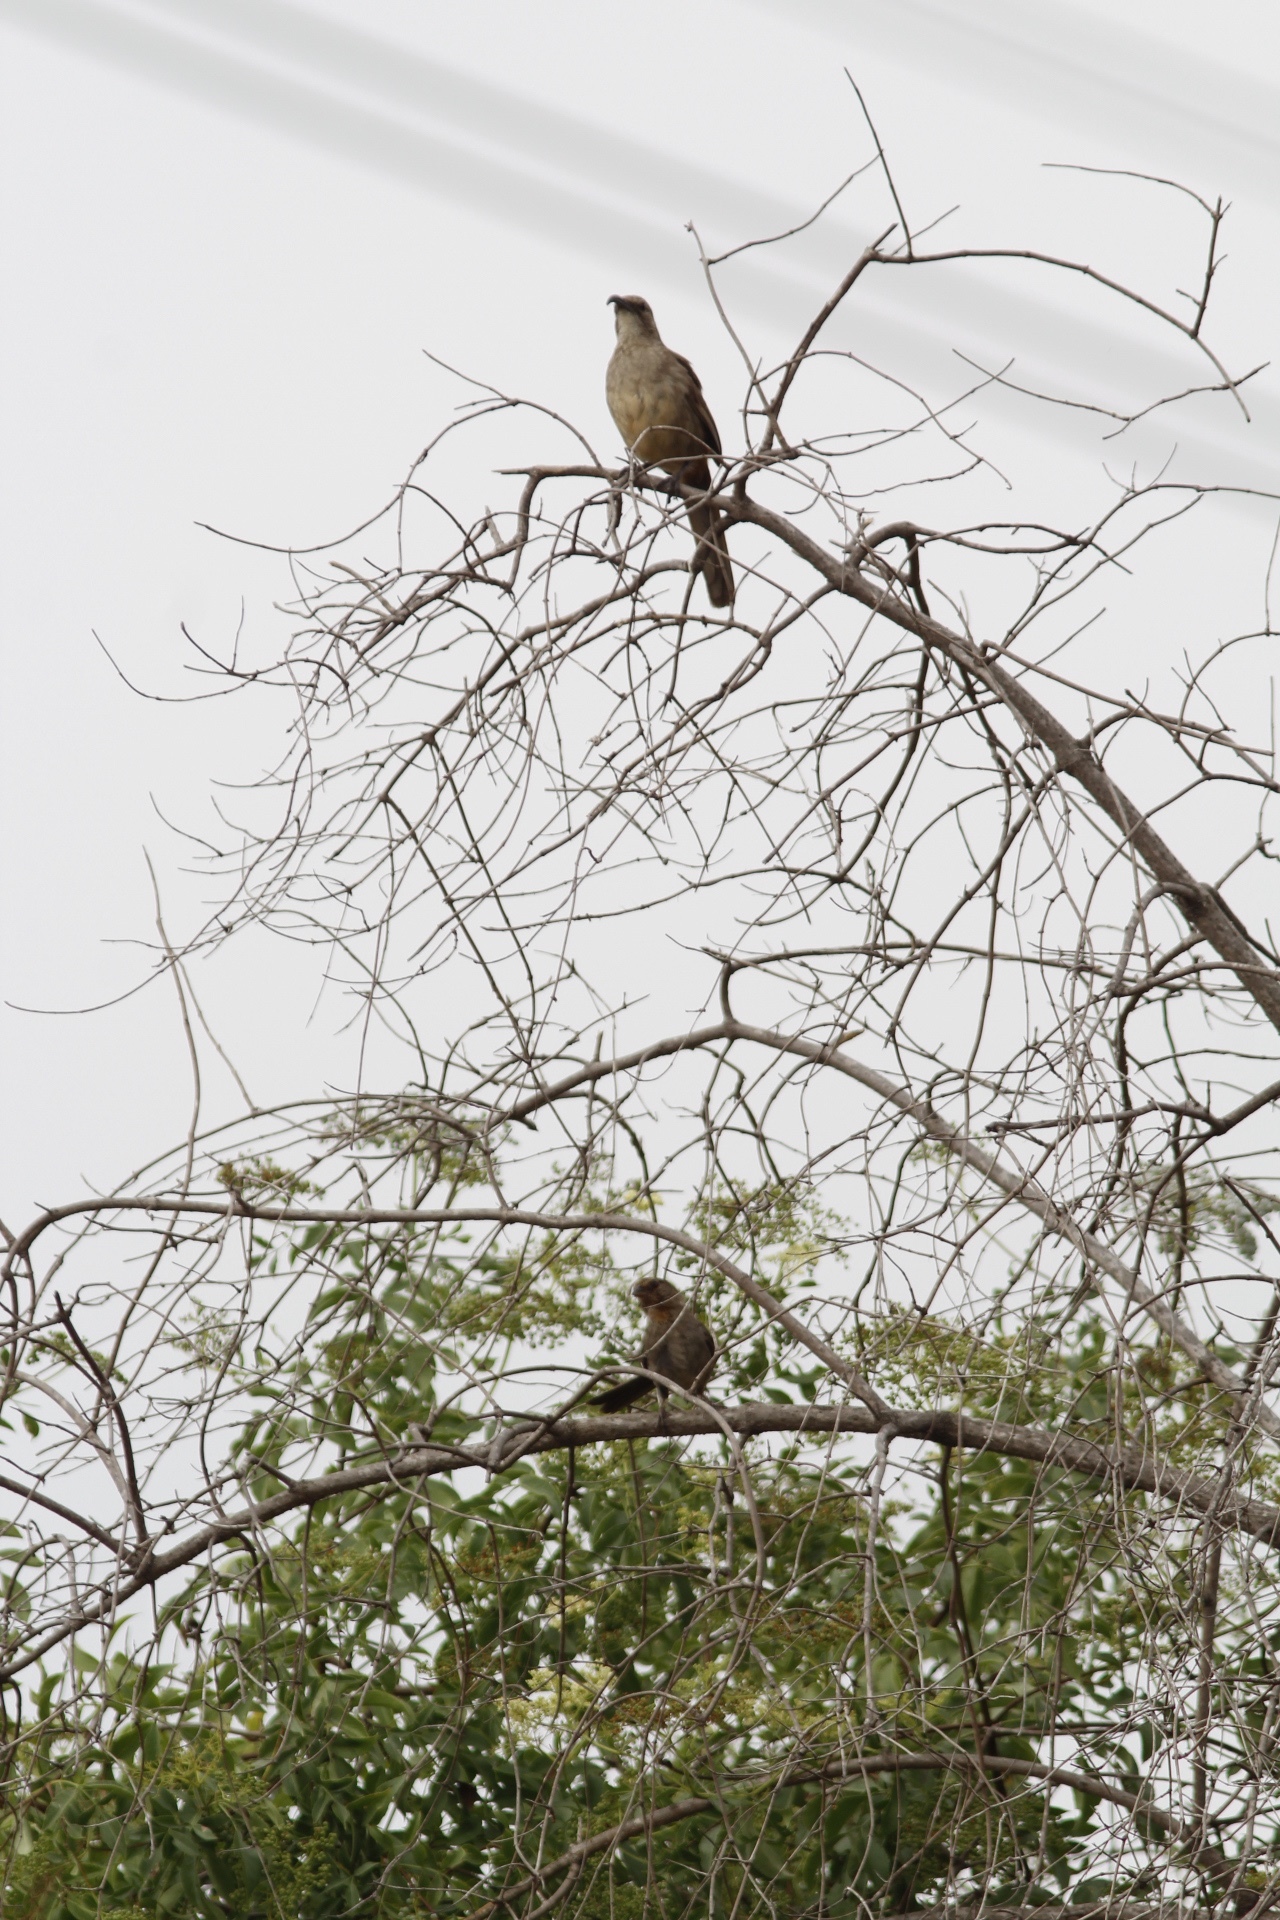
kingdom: Animalia
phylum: Chordata
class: Aves
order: Passeriformes
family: Mimidae
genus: Toxostoma
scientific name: Toxostoma redivivum
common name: California thrasher
